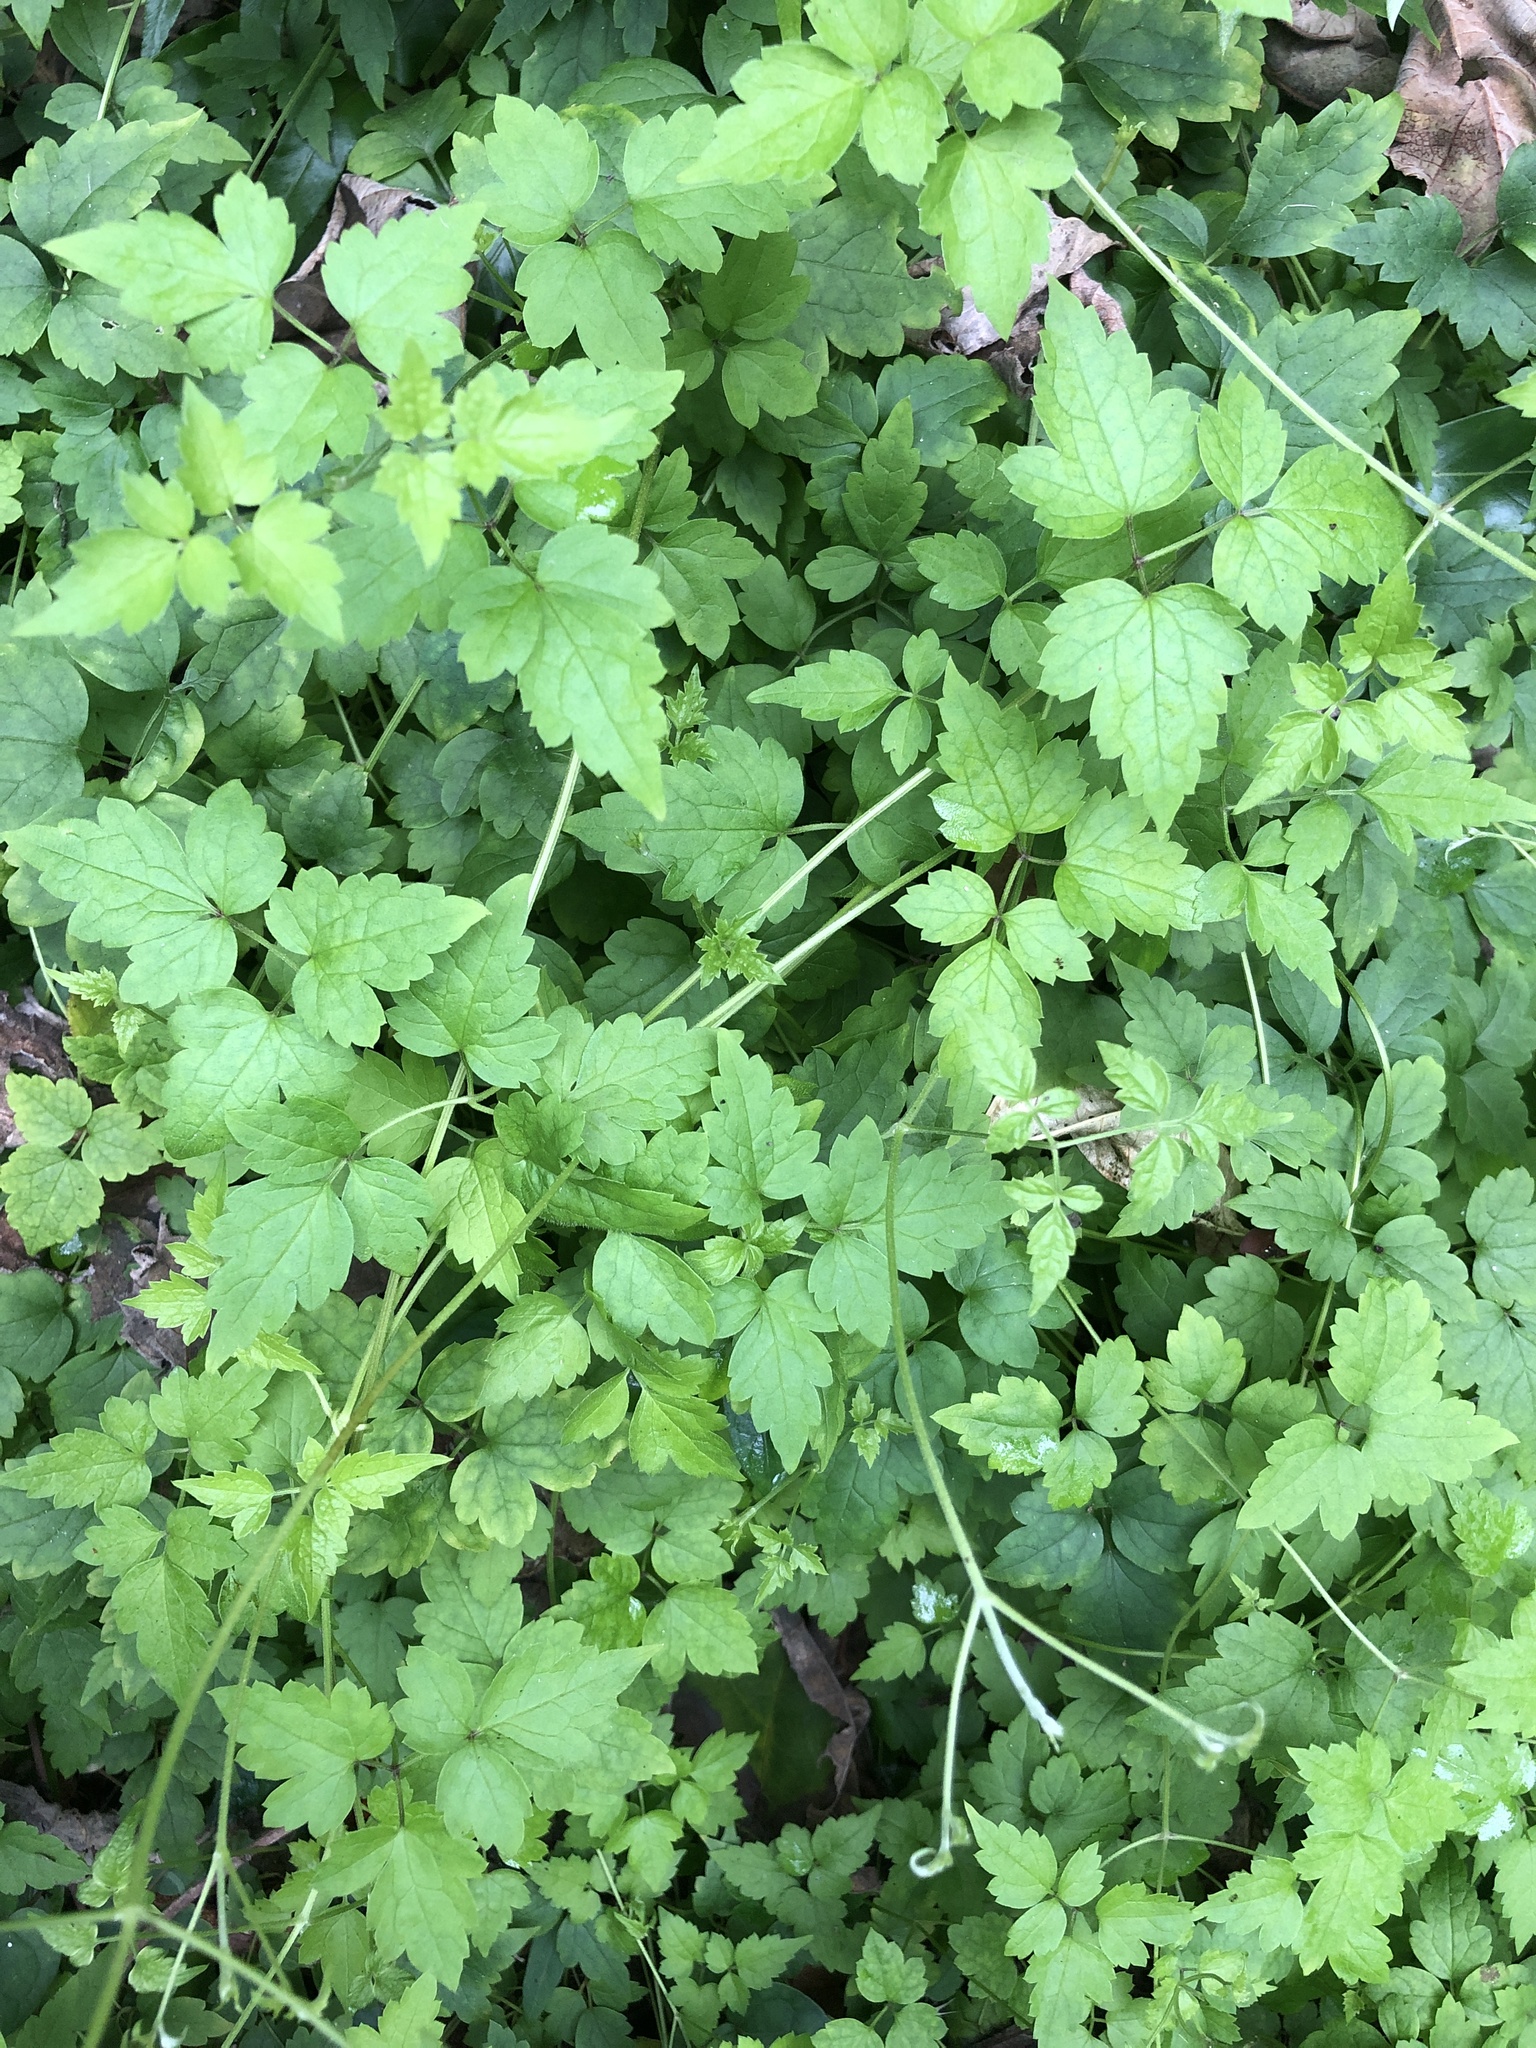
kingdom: Plantae
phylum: Tracheophyta
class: Magnoliopsida
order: Ranunculales
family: Ranunculaceae
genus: Clematis
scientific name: Clematis grata
